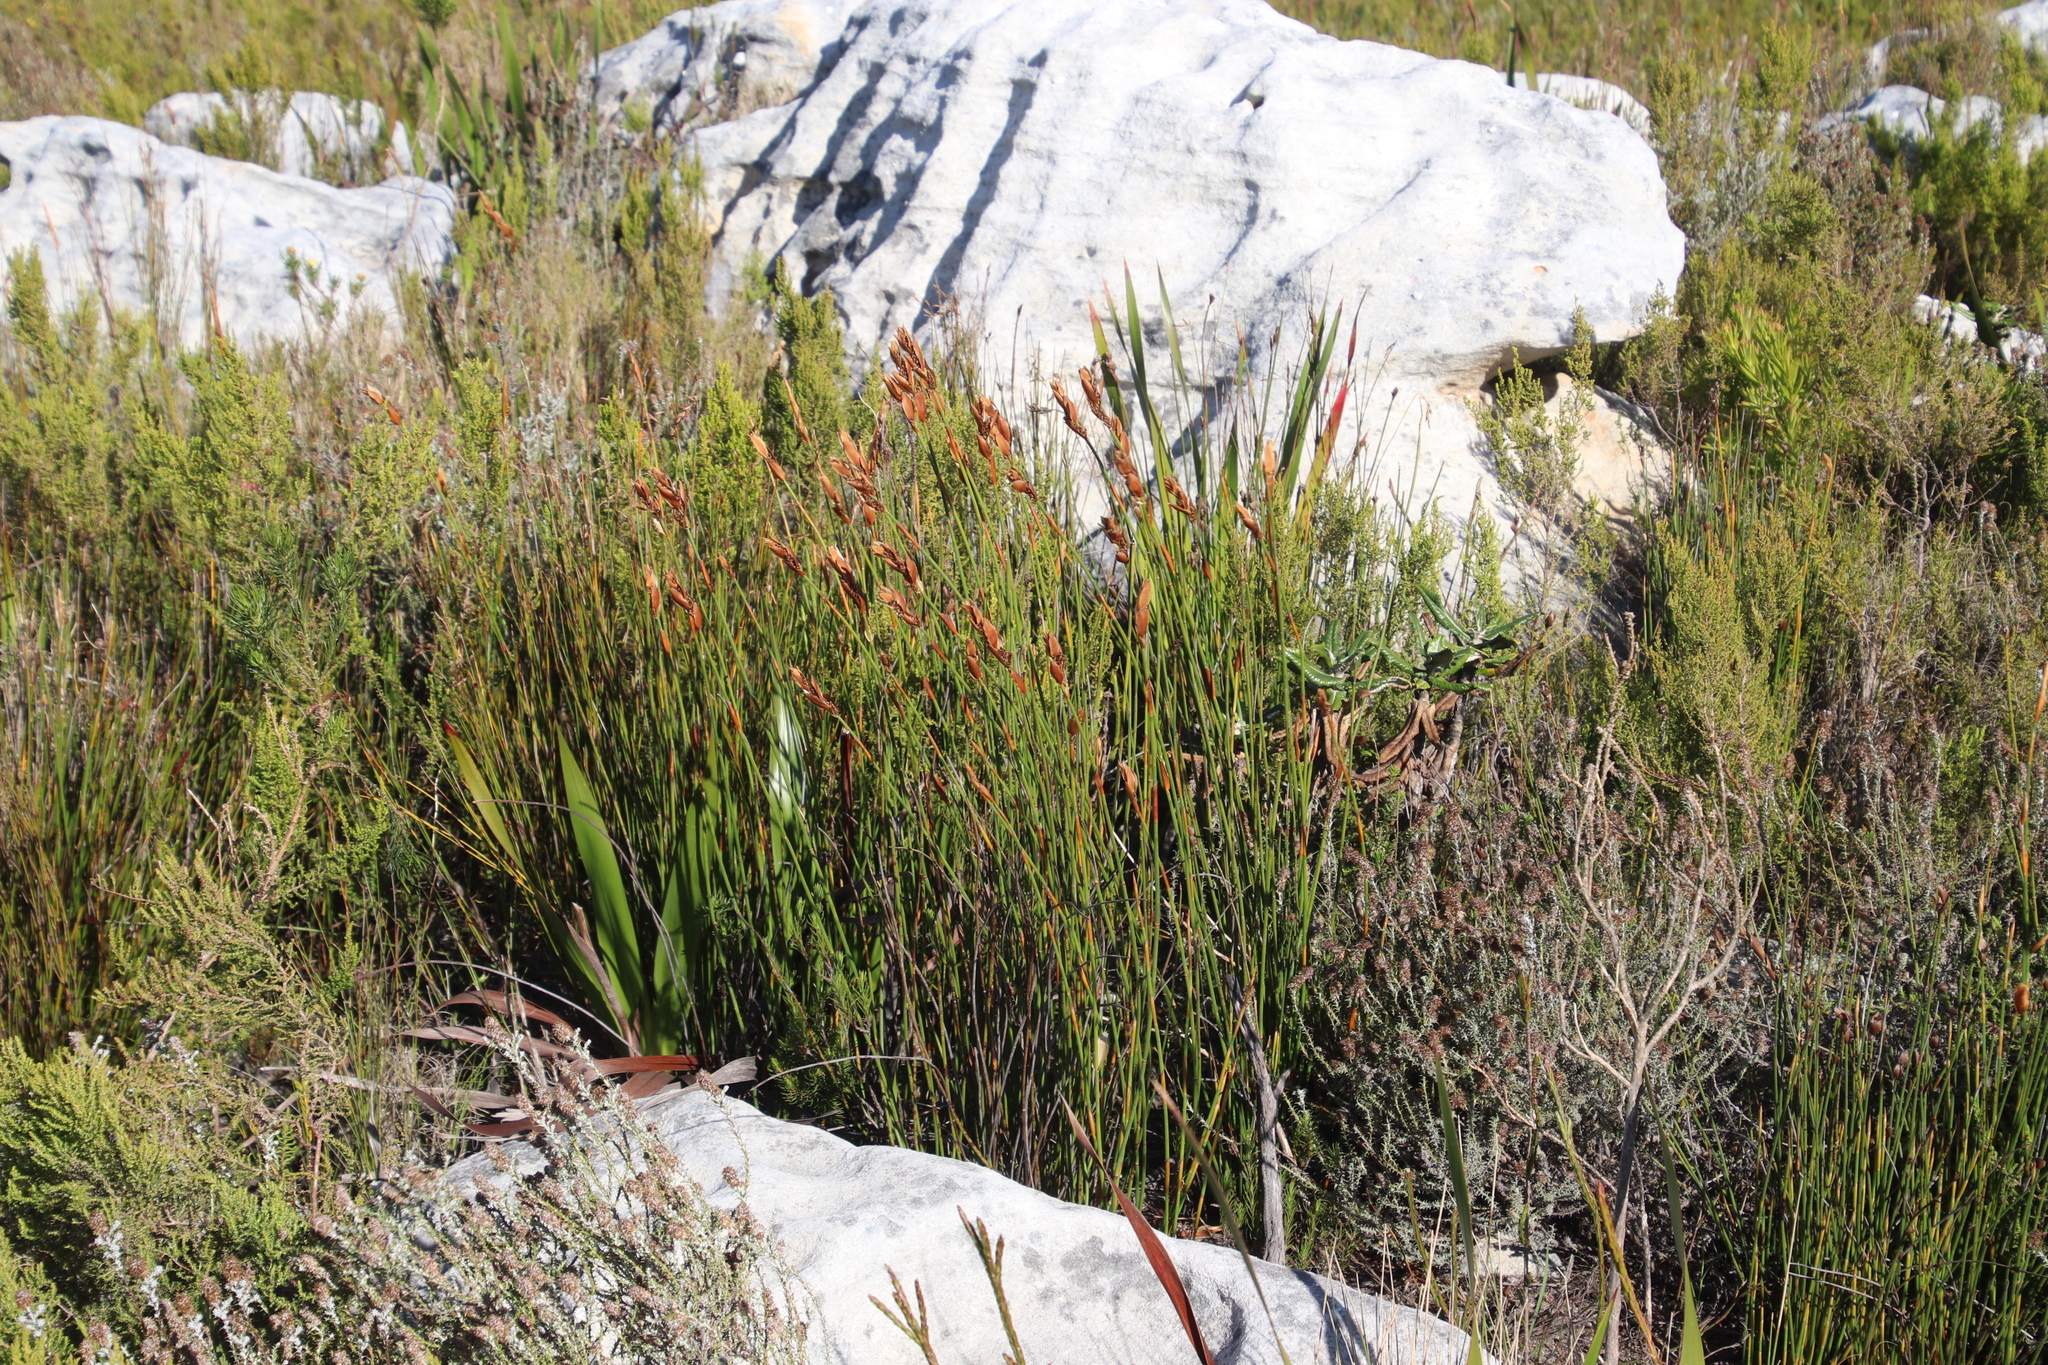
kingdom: Plantae
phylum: Tracheophyta
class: Liliopsida
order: Poales
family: Restionaceae
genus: Elegia
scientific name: Elegia racemosa
